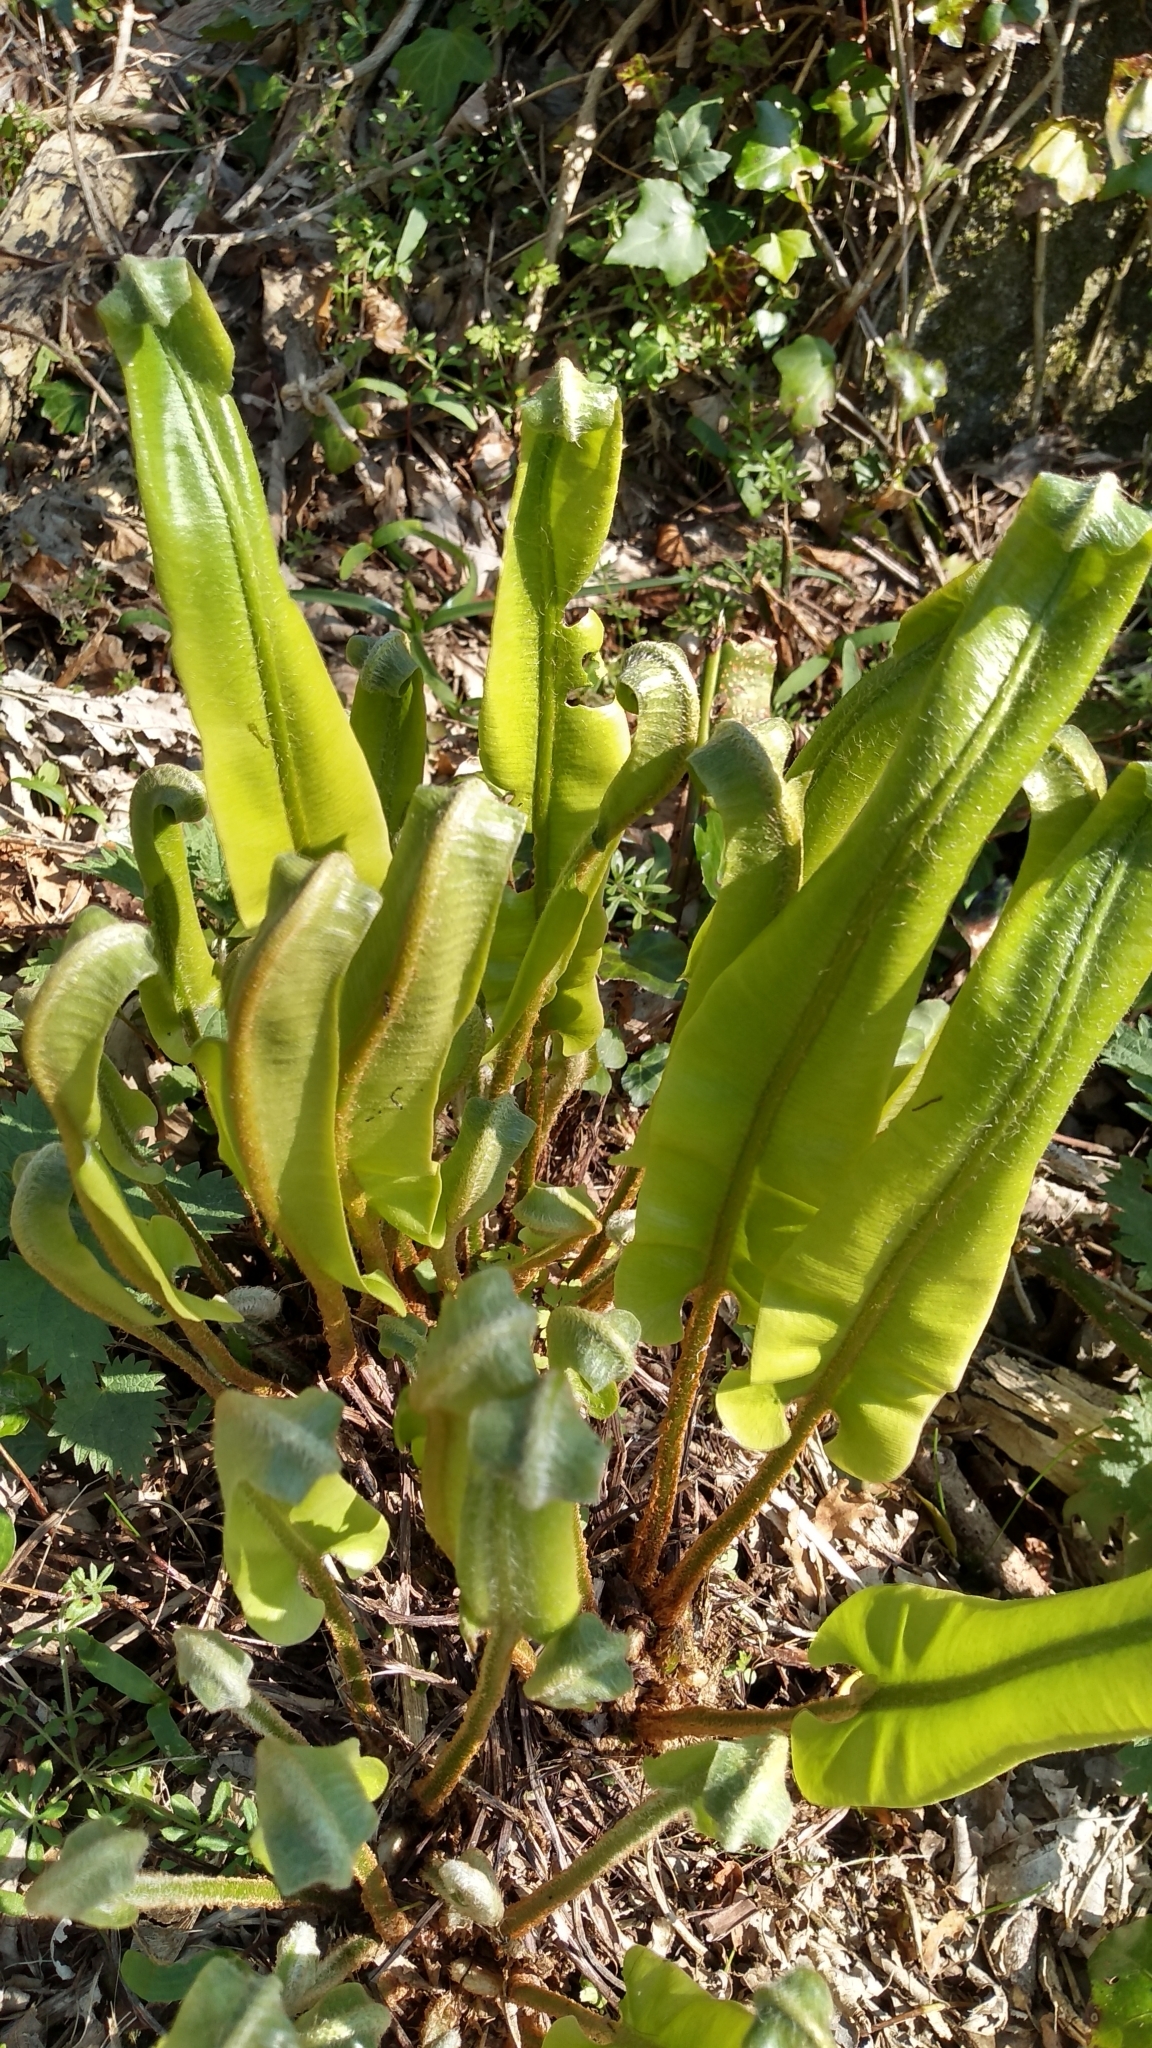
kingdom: Plantae
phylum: Tracheophyta
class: Polypodiopsida
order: Polypodiales
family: Aspleniaceae
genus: Asplenium
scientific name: Asplenium scolopendrium
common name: Hart's-tongue fern
